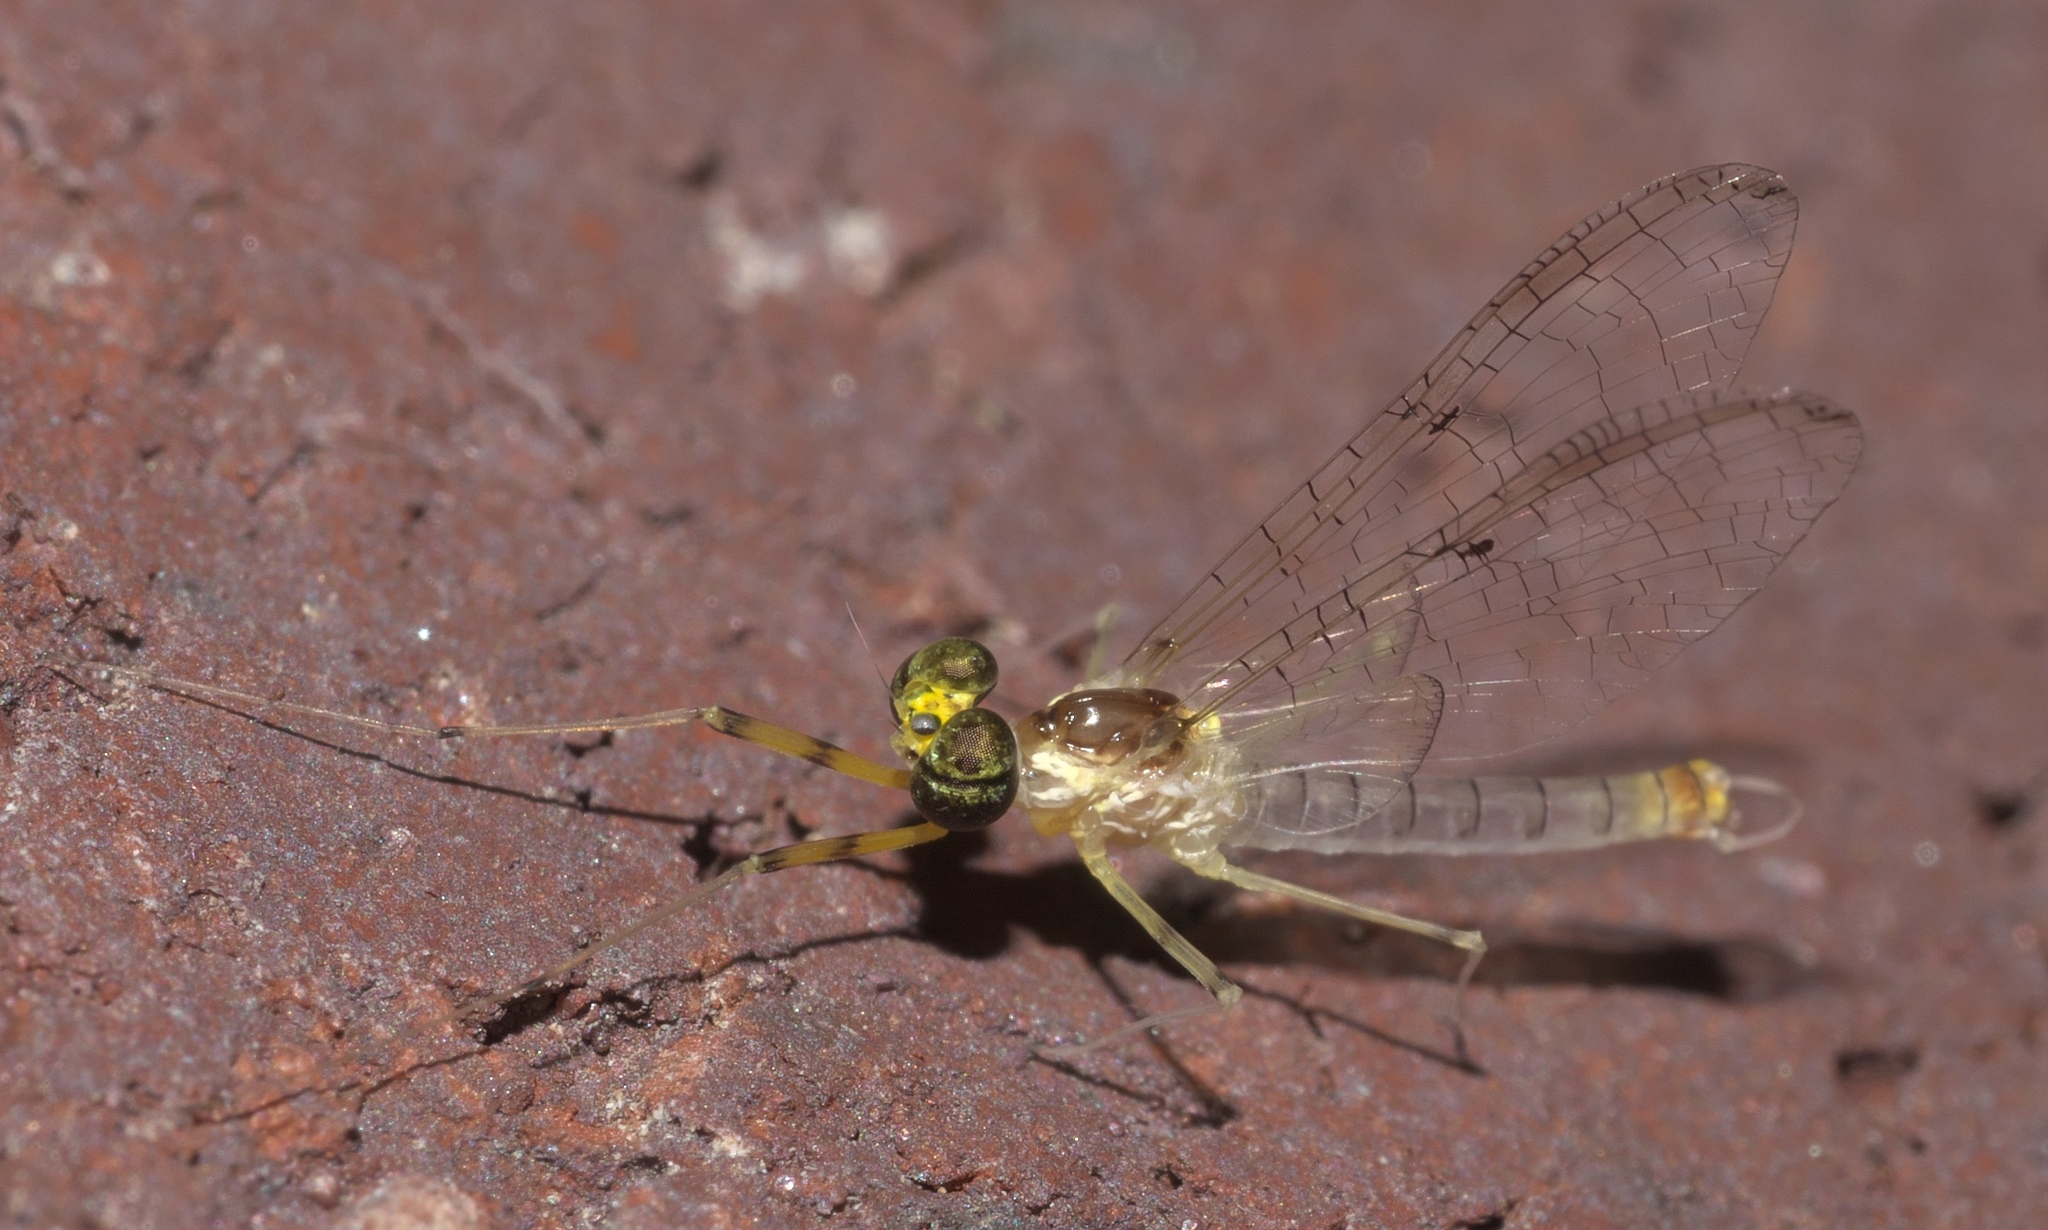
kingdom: Animalia
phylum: Arthropoda
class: Insecta
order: Ephemeroptera
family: Heptageniidae
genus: Stenacron
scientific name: Stenacron candidum
